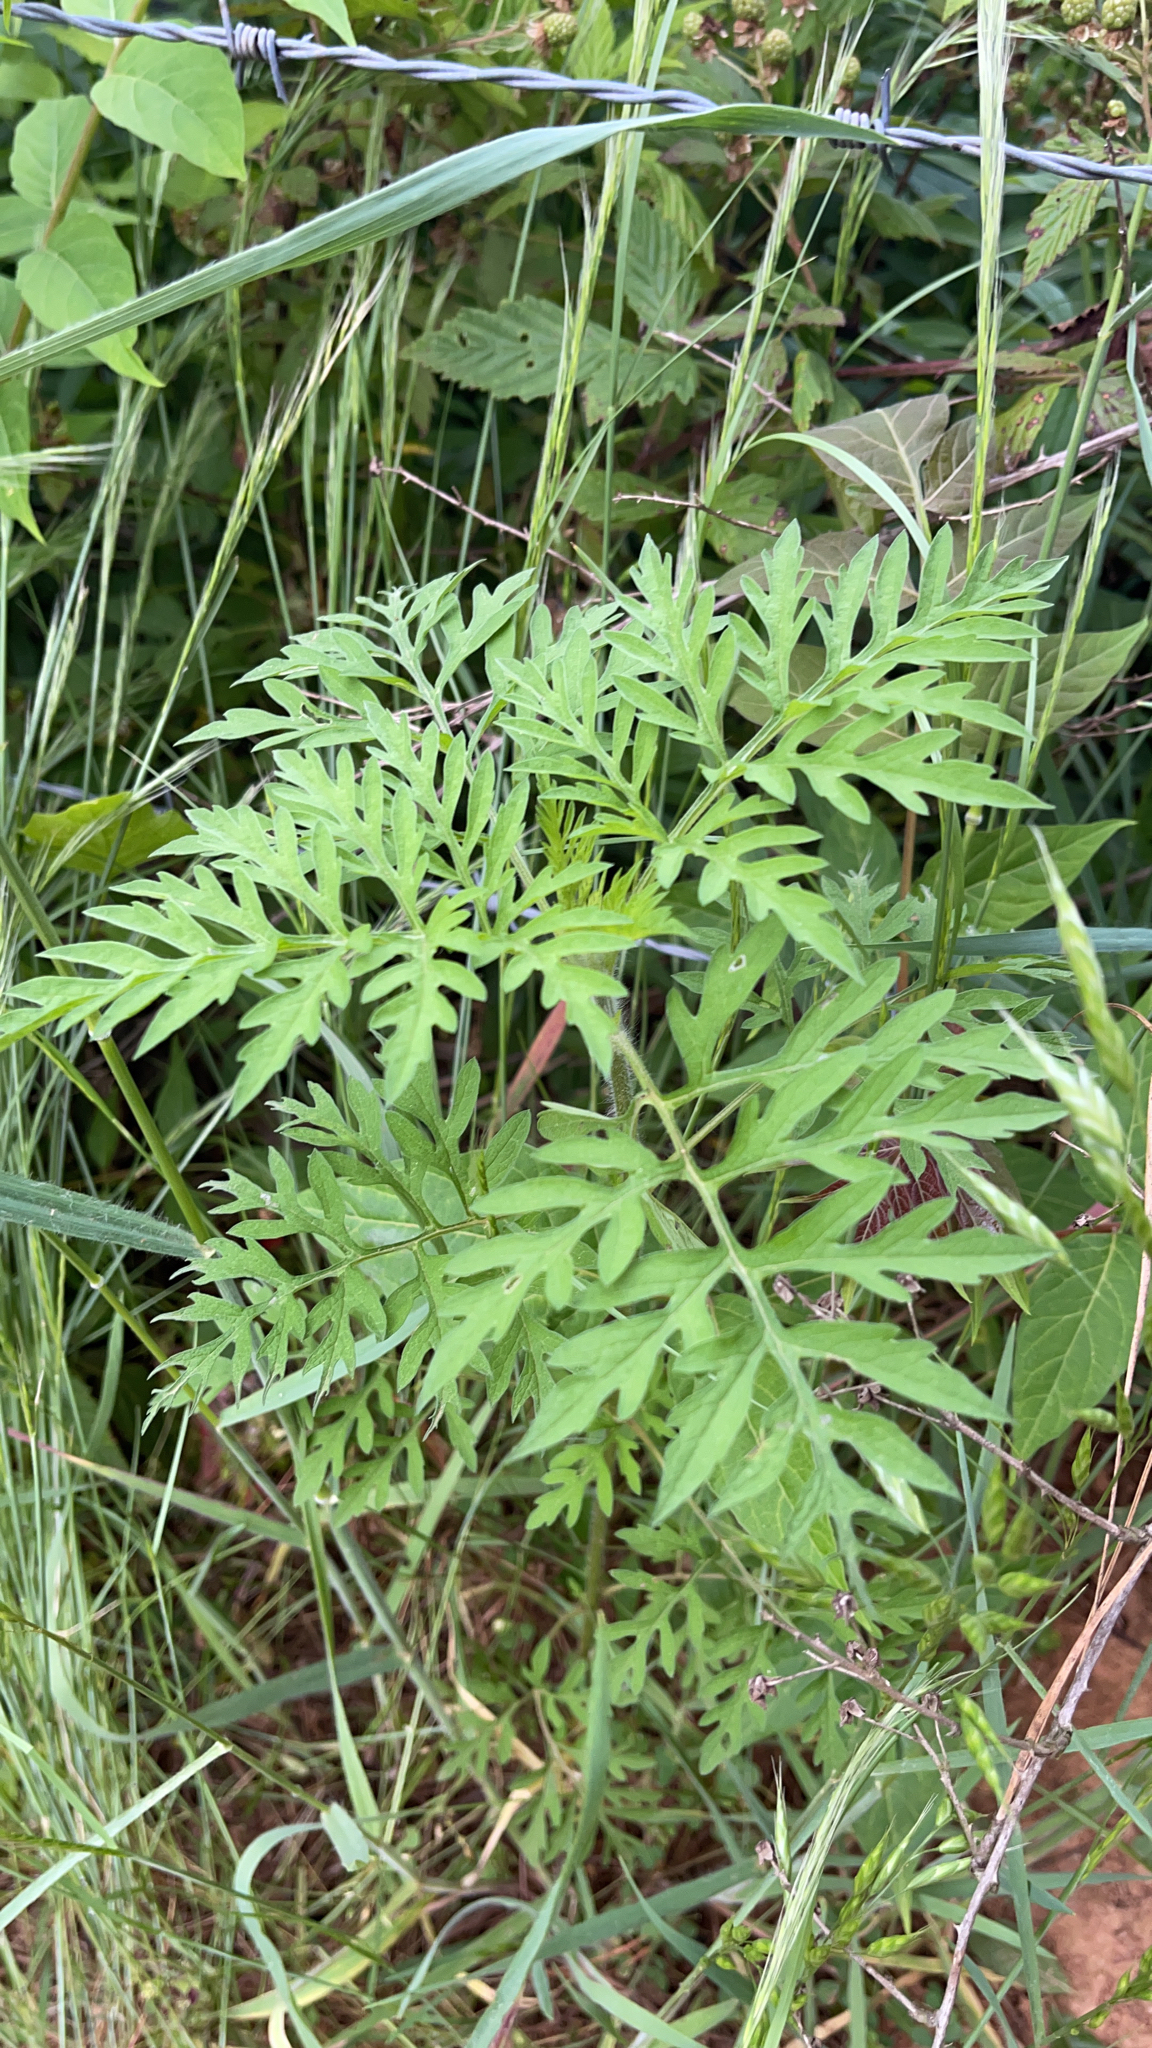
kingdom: Plantae
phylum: Tracheophyta
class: Magnoliopsida
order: Asterales
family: Asteraceae
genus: Ambrosia
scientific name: Ambrosia artemisiifolia
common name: Annual ragweed
